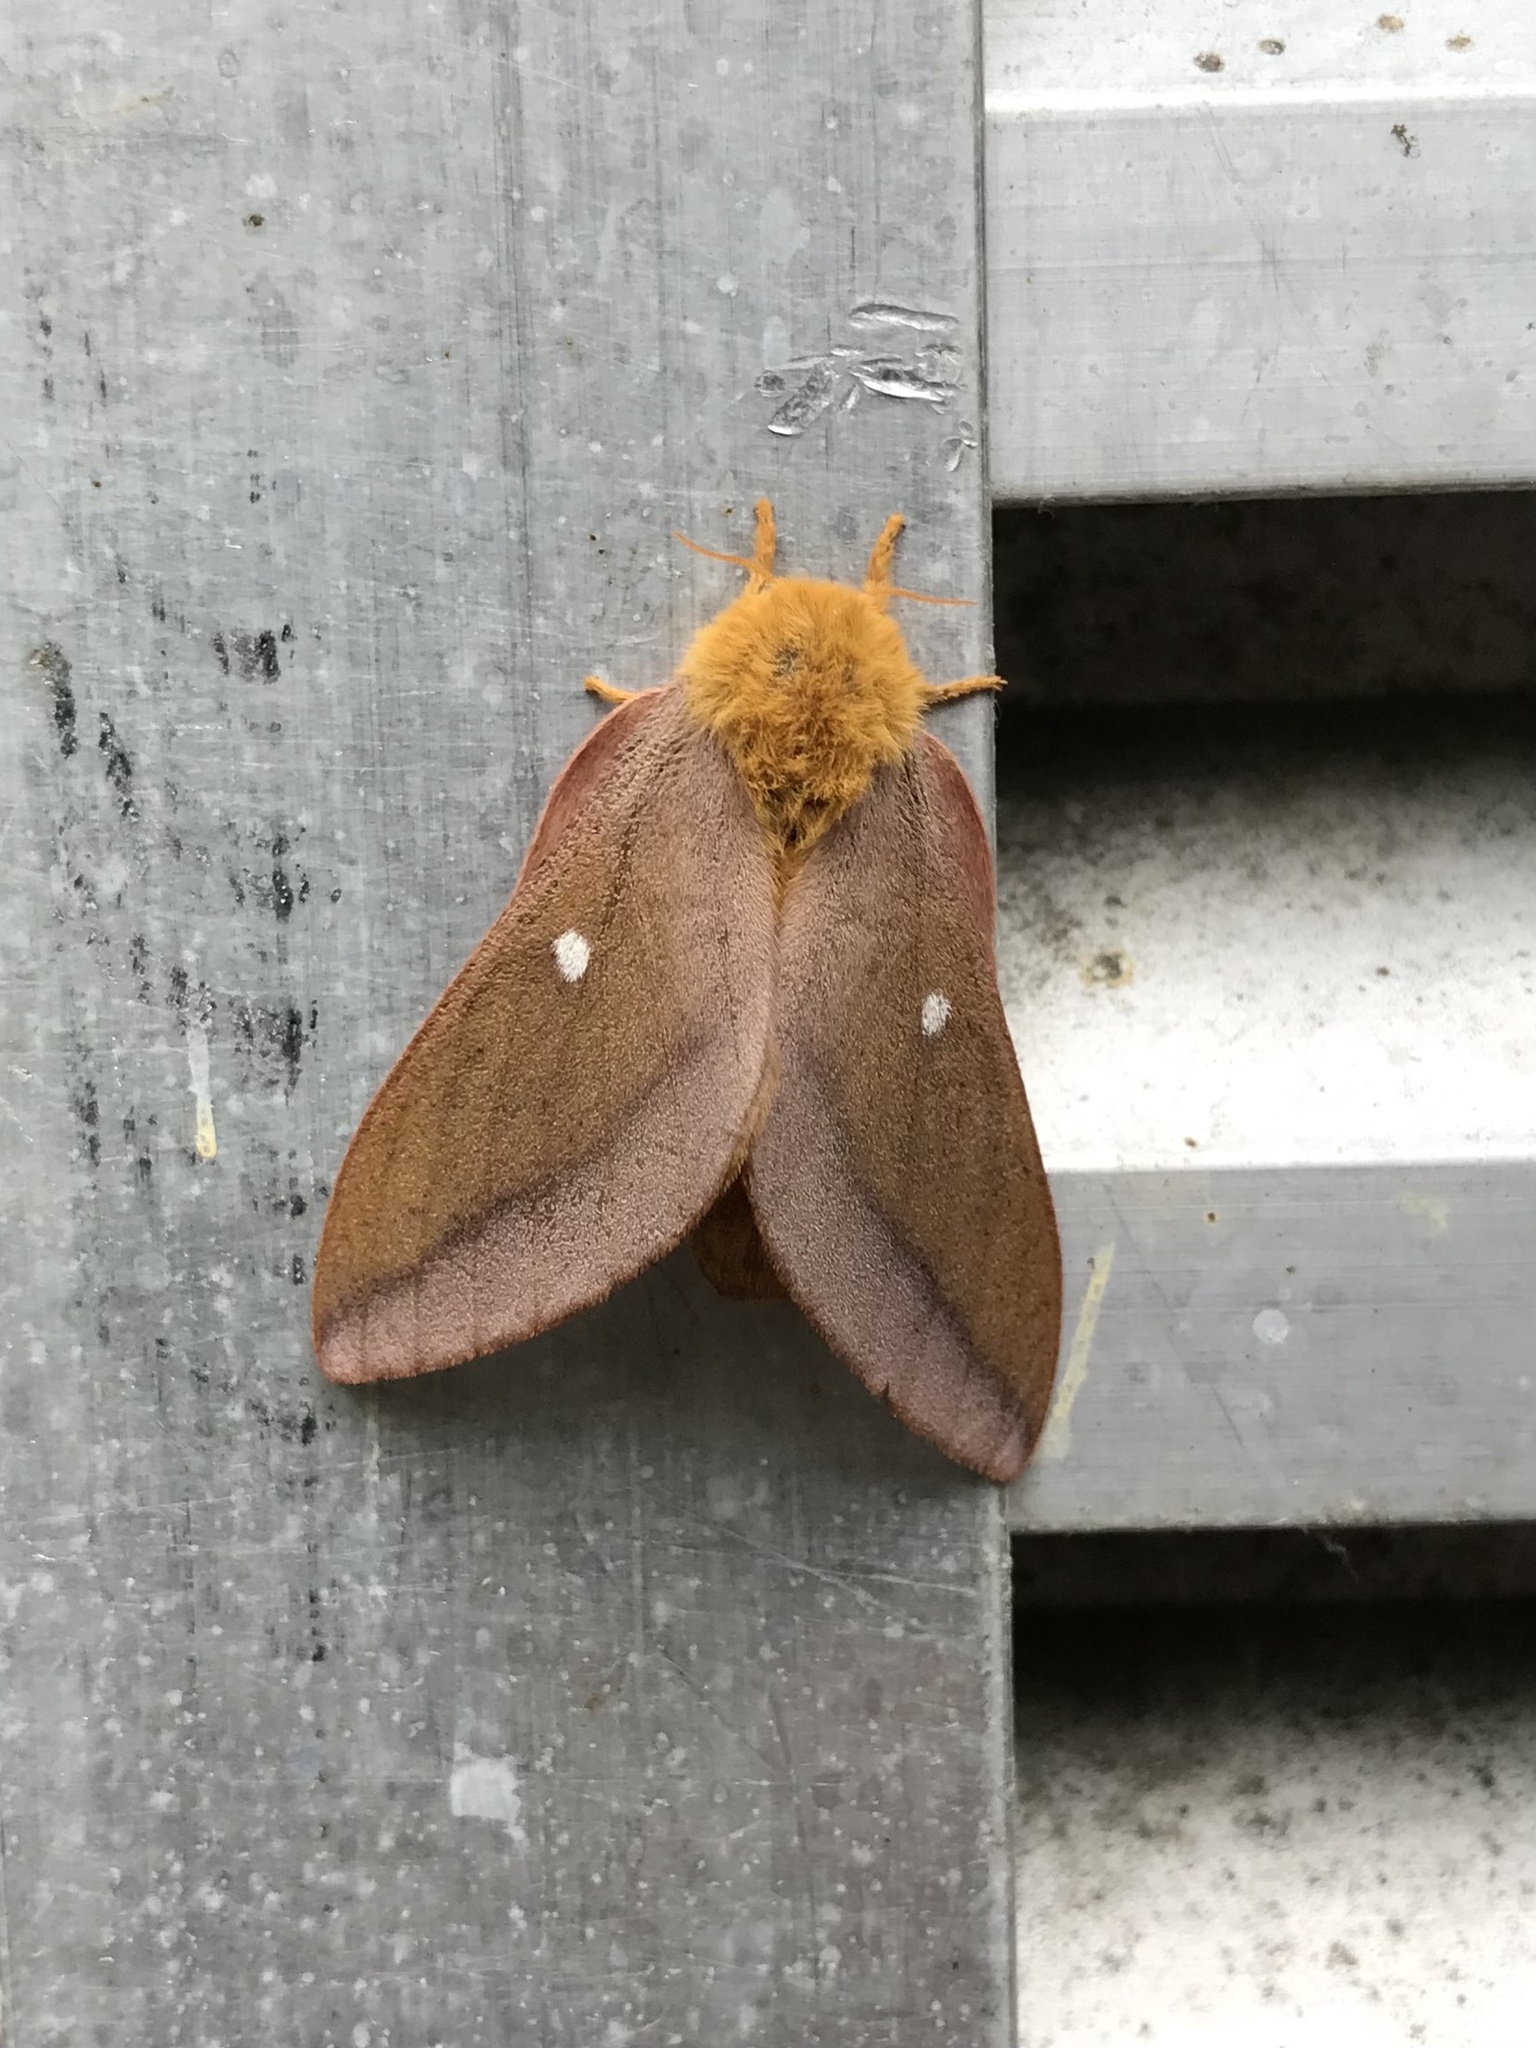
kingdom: Animalia
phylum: Arthropoda
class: Insecta
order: Lepidoptera
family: Saturniidae
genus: Anisota
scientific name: Anisota virginiensis
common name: Pink striped oakworm moth
